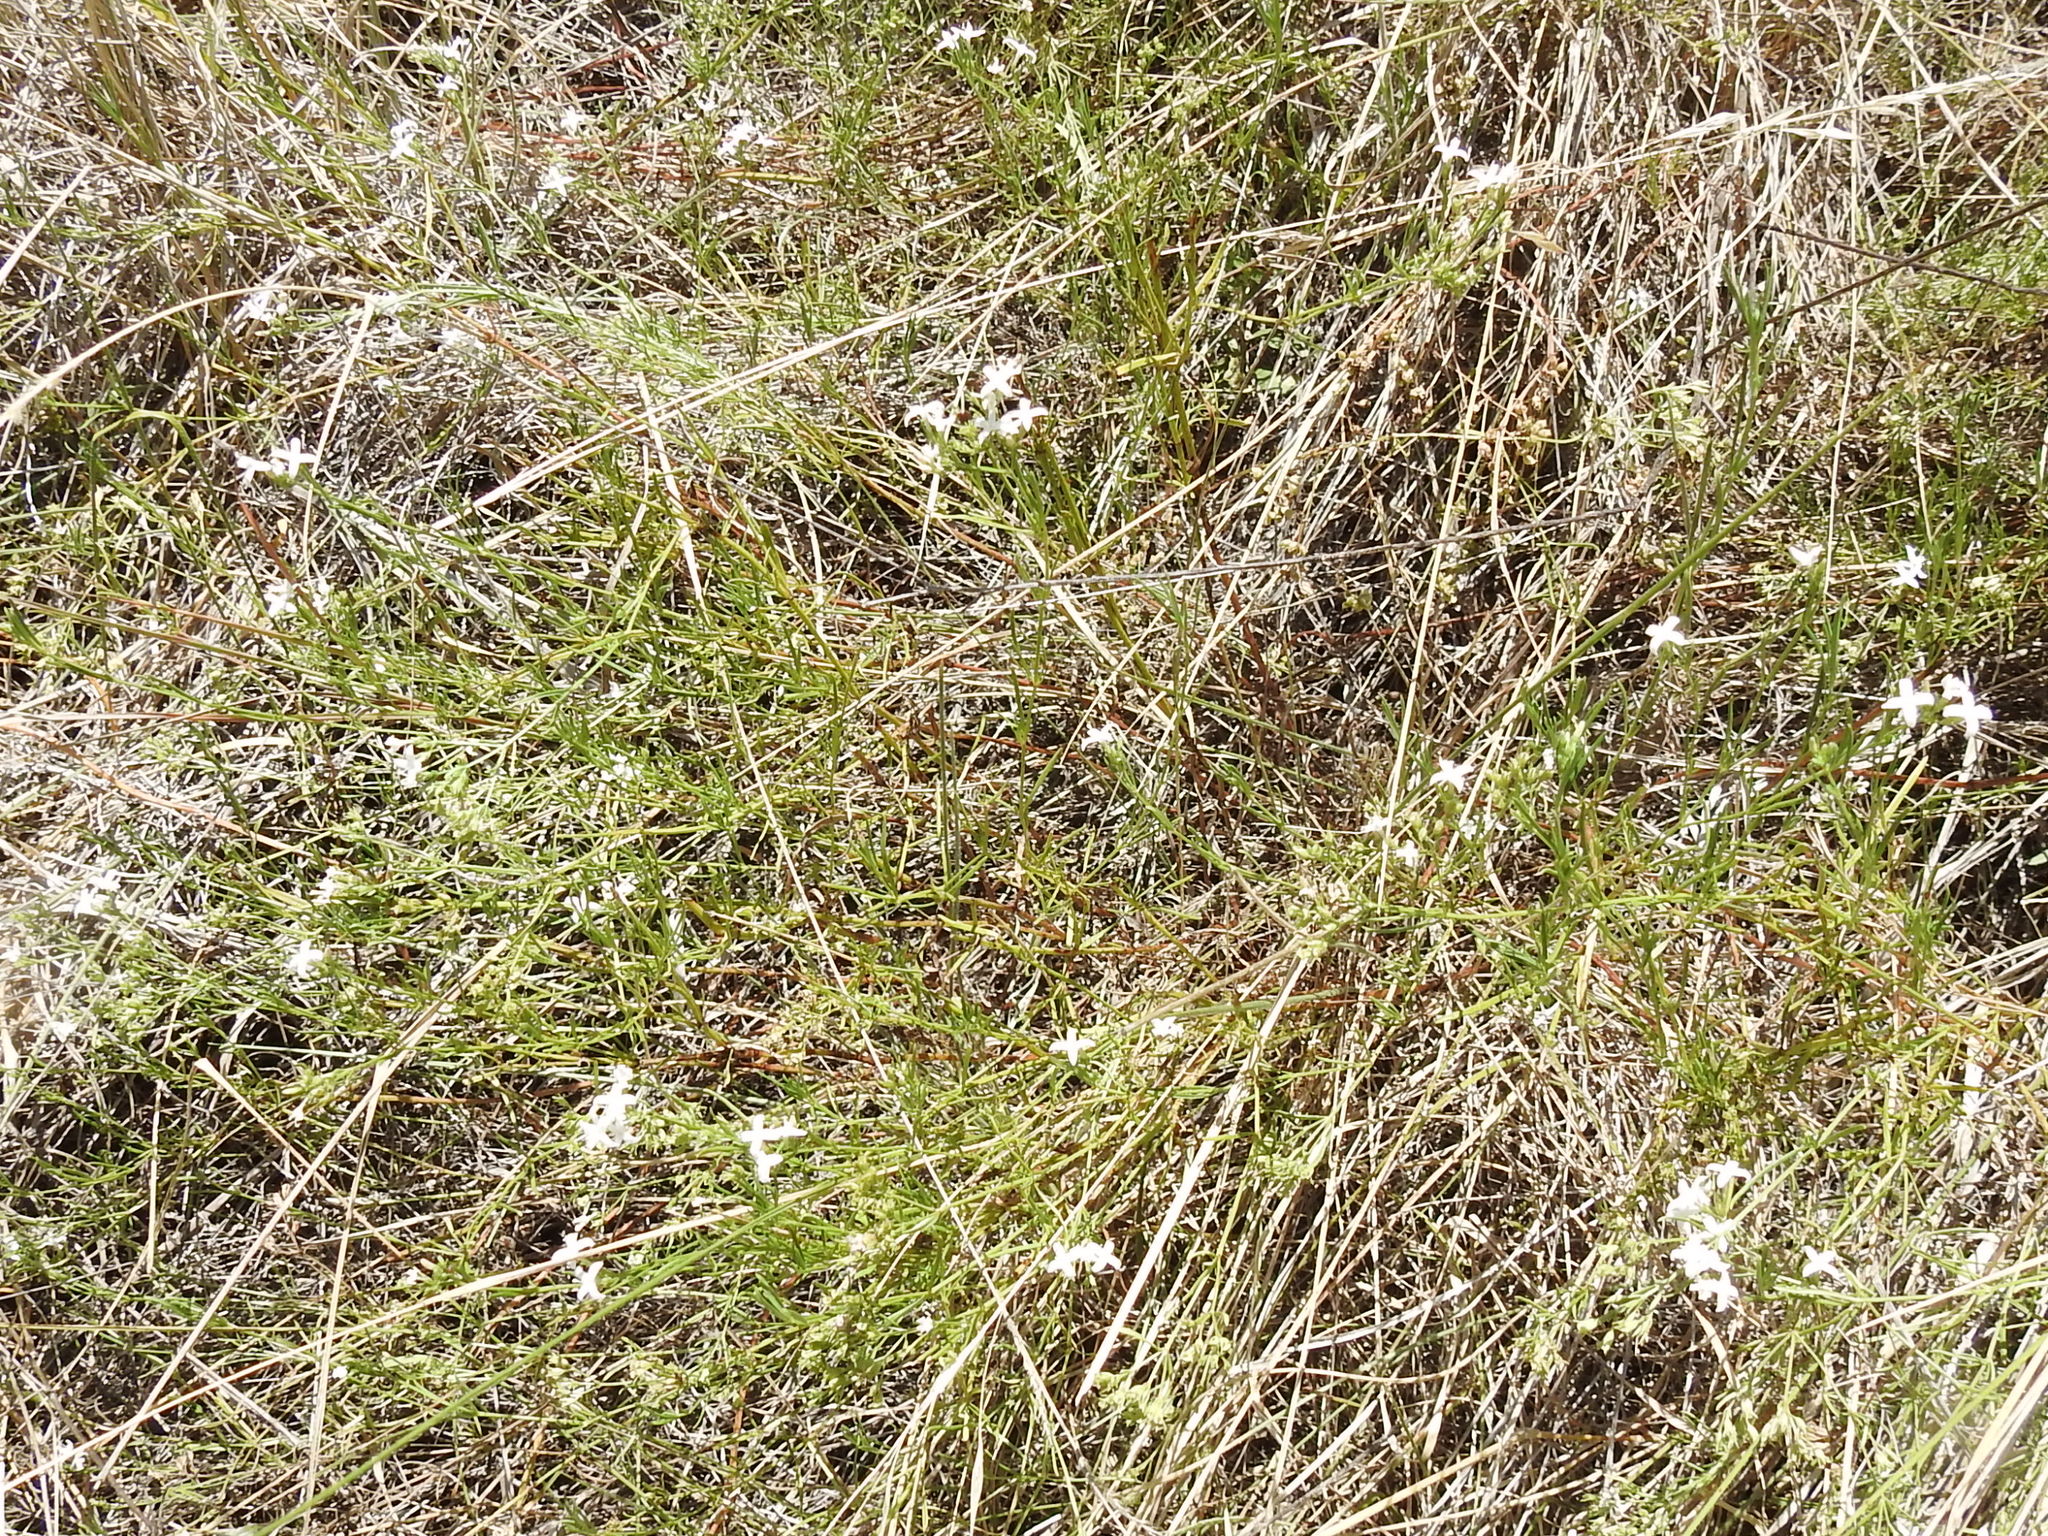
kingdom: Plantae
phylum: Tracheophyta
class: Magnoliopsida
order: Gentianales
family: Rubiaceae
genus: Stenaria
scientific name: Stenaria nigricans
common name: Diamondflowers
